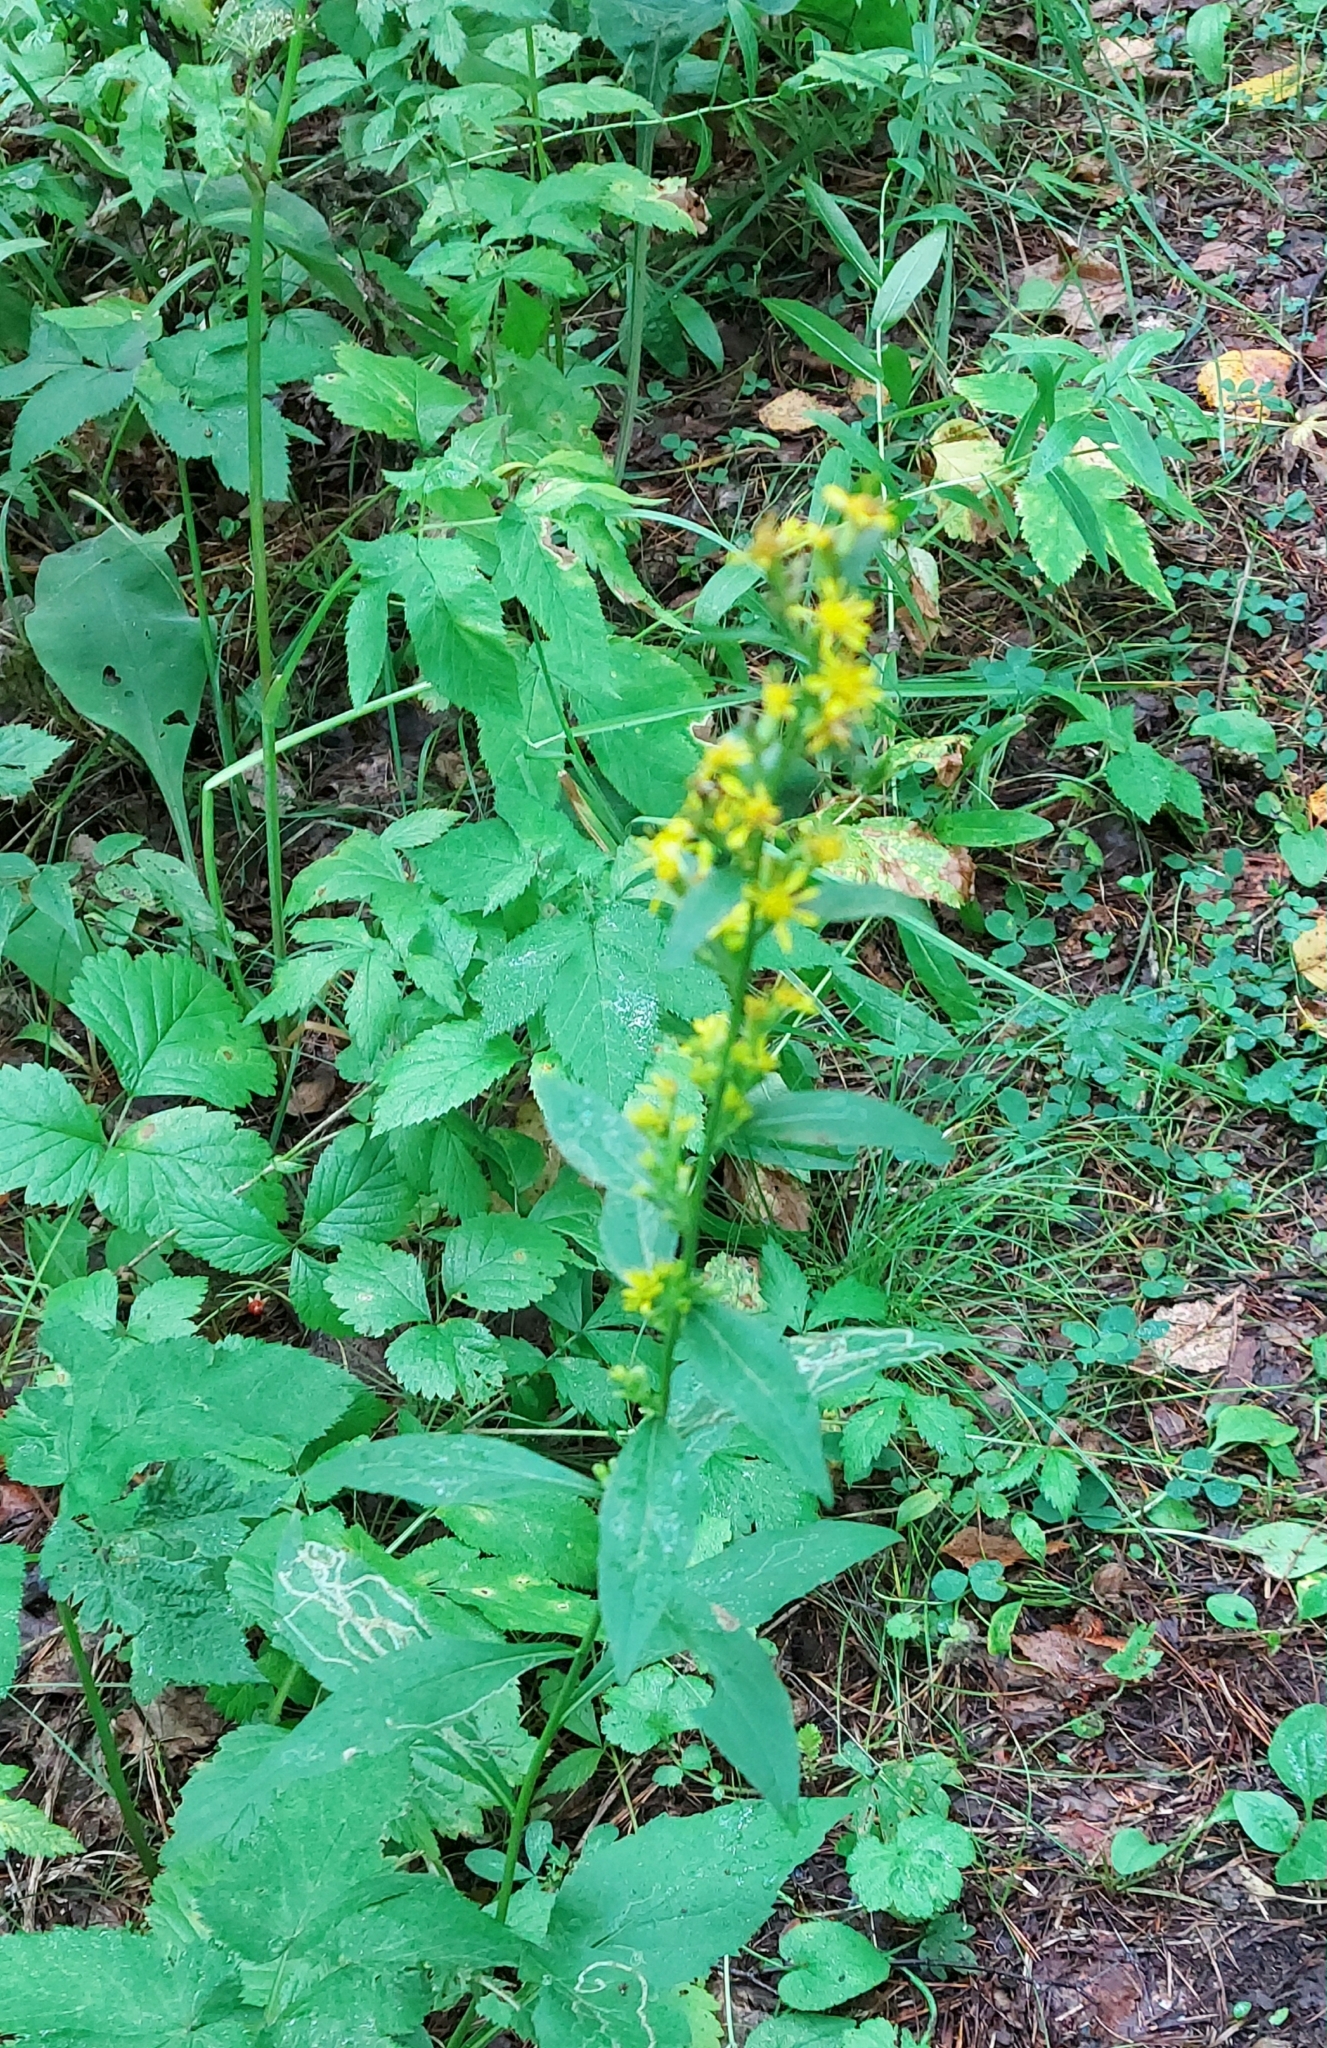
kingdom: Plantae
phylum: Tracheophyta
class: Magnoliopsida
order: Asterales
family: Asteraceae
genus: Solidago
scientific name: Solidago virgaurea
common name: Goldenrod
